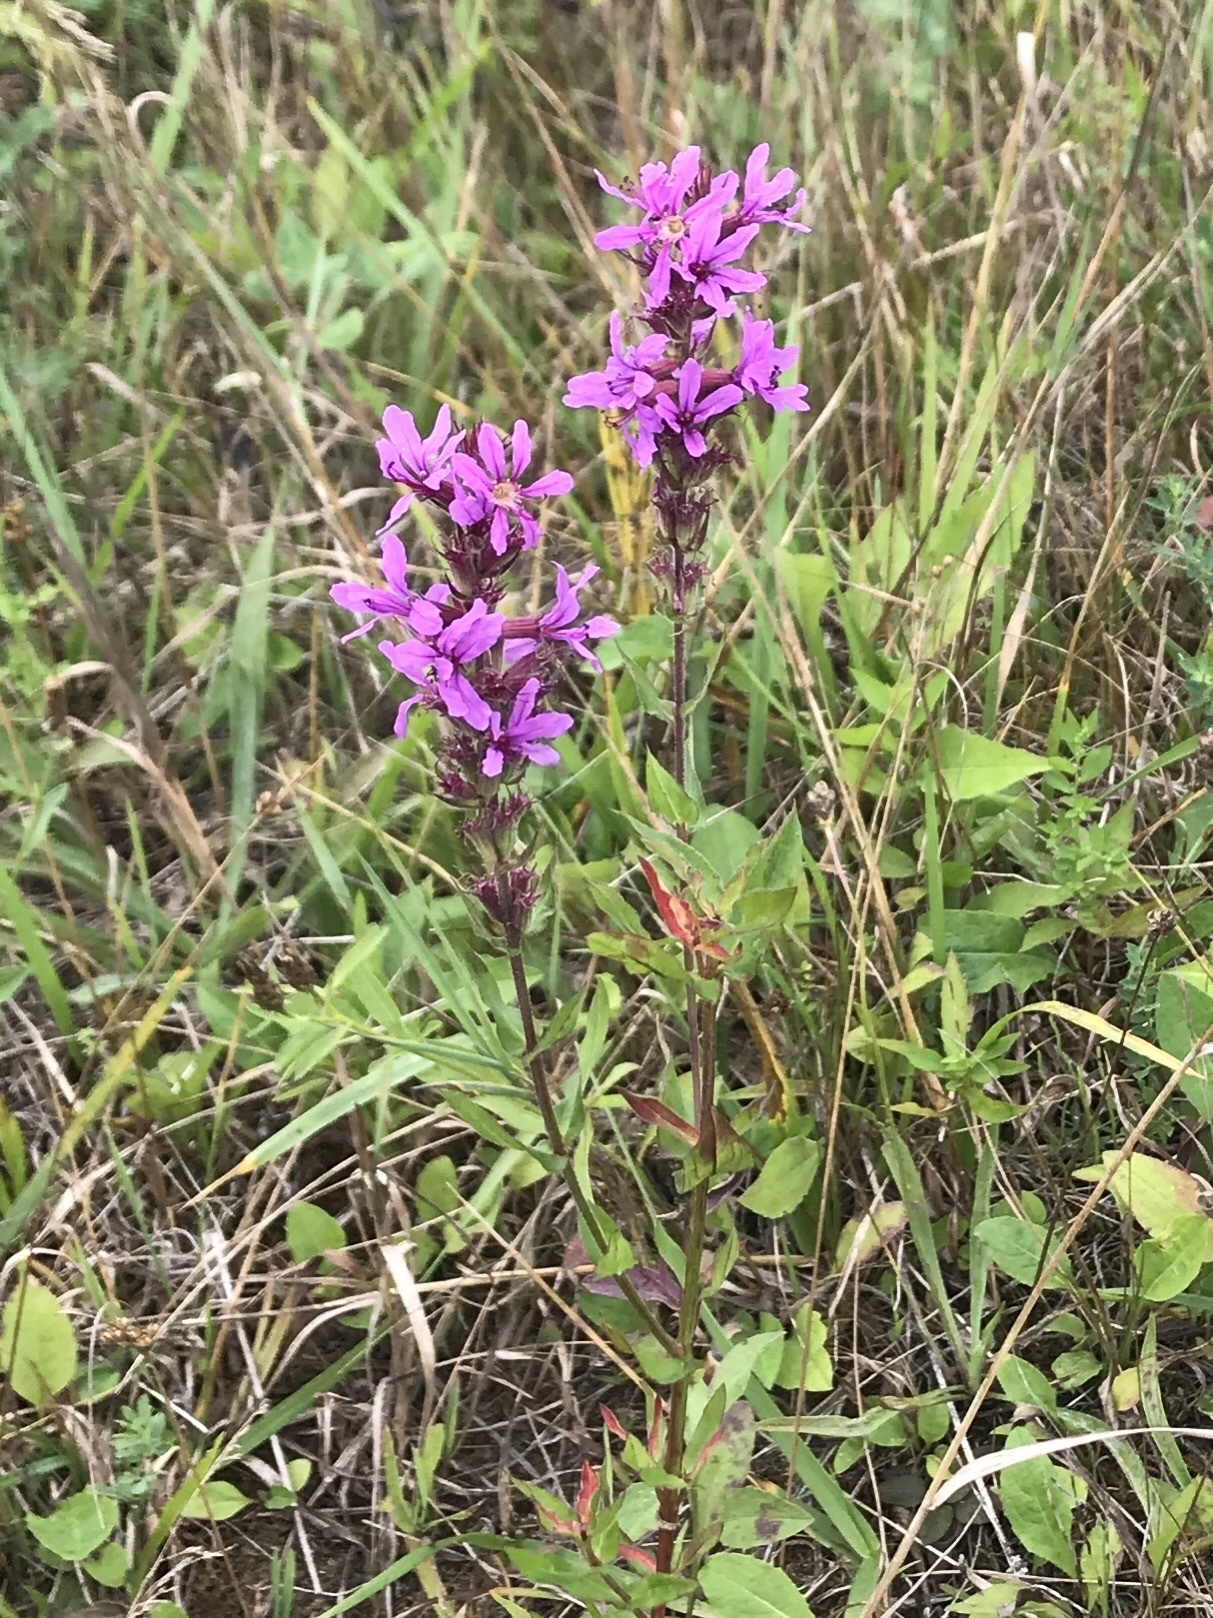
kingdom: Plantae
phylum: Tracheophyta
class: Magnoliopsida
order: Myrtales
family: Lythraceae
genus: Lythrum
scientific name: Lythrum salicaria
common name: Purple loosestrife
